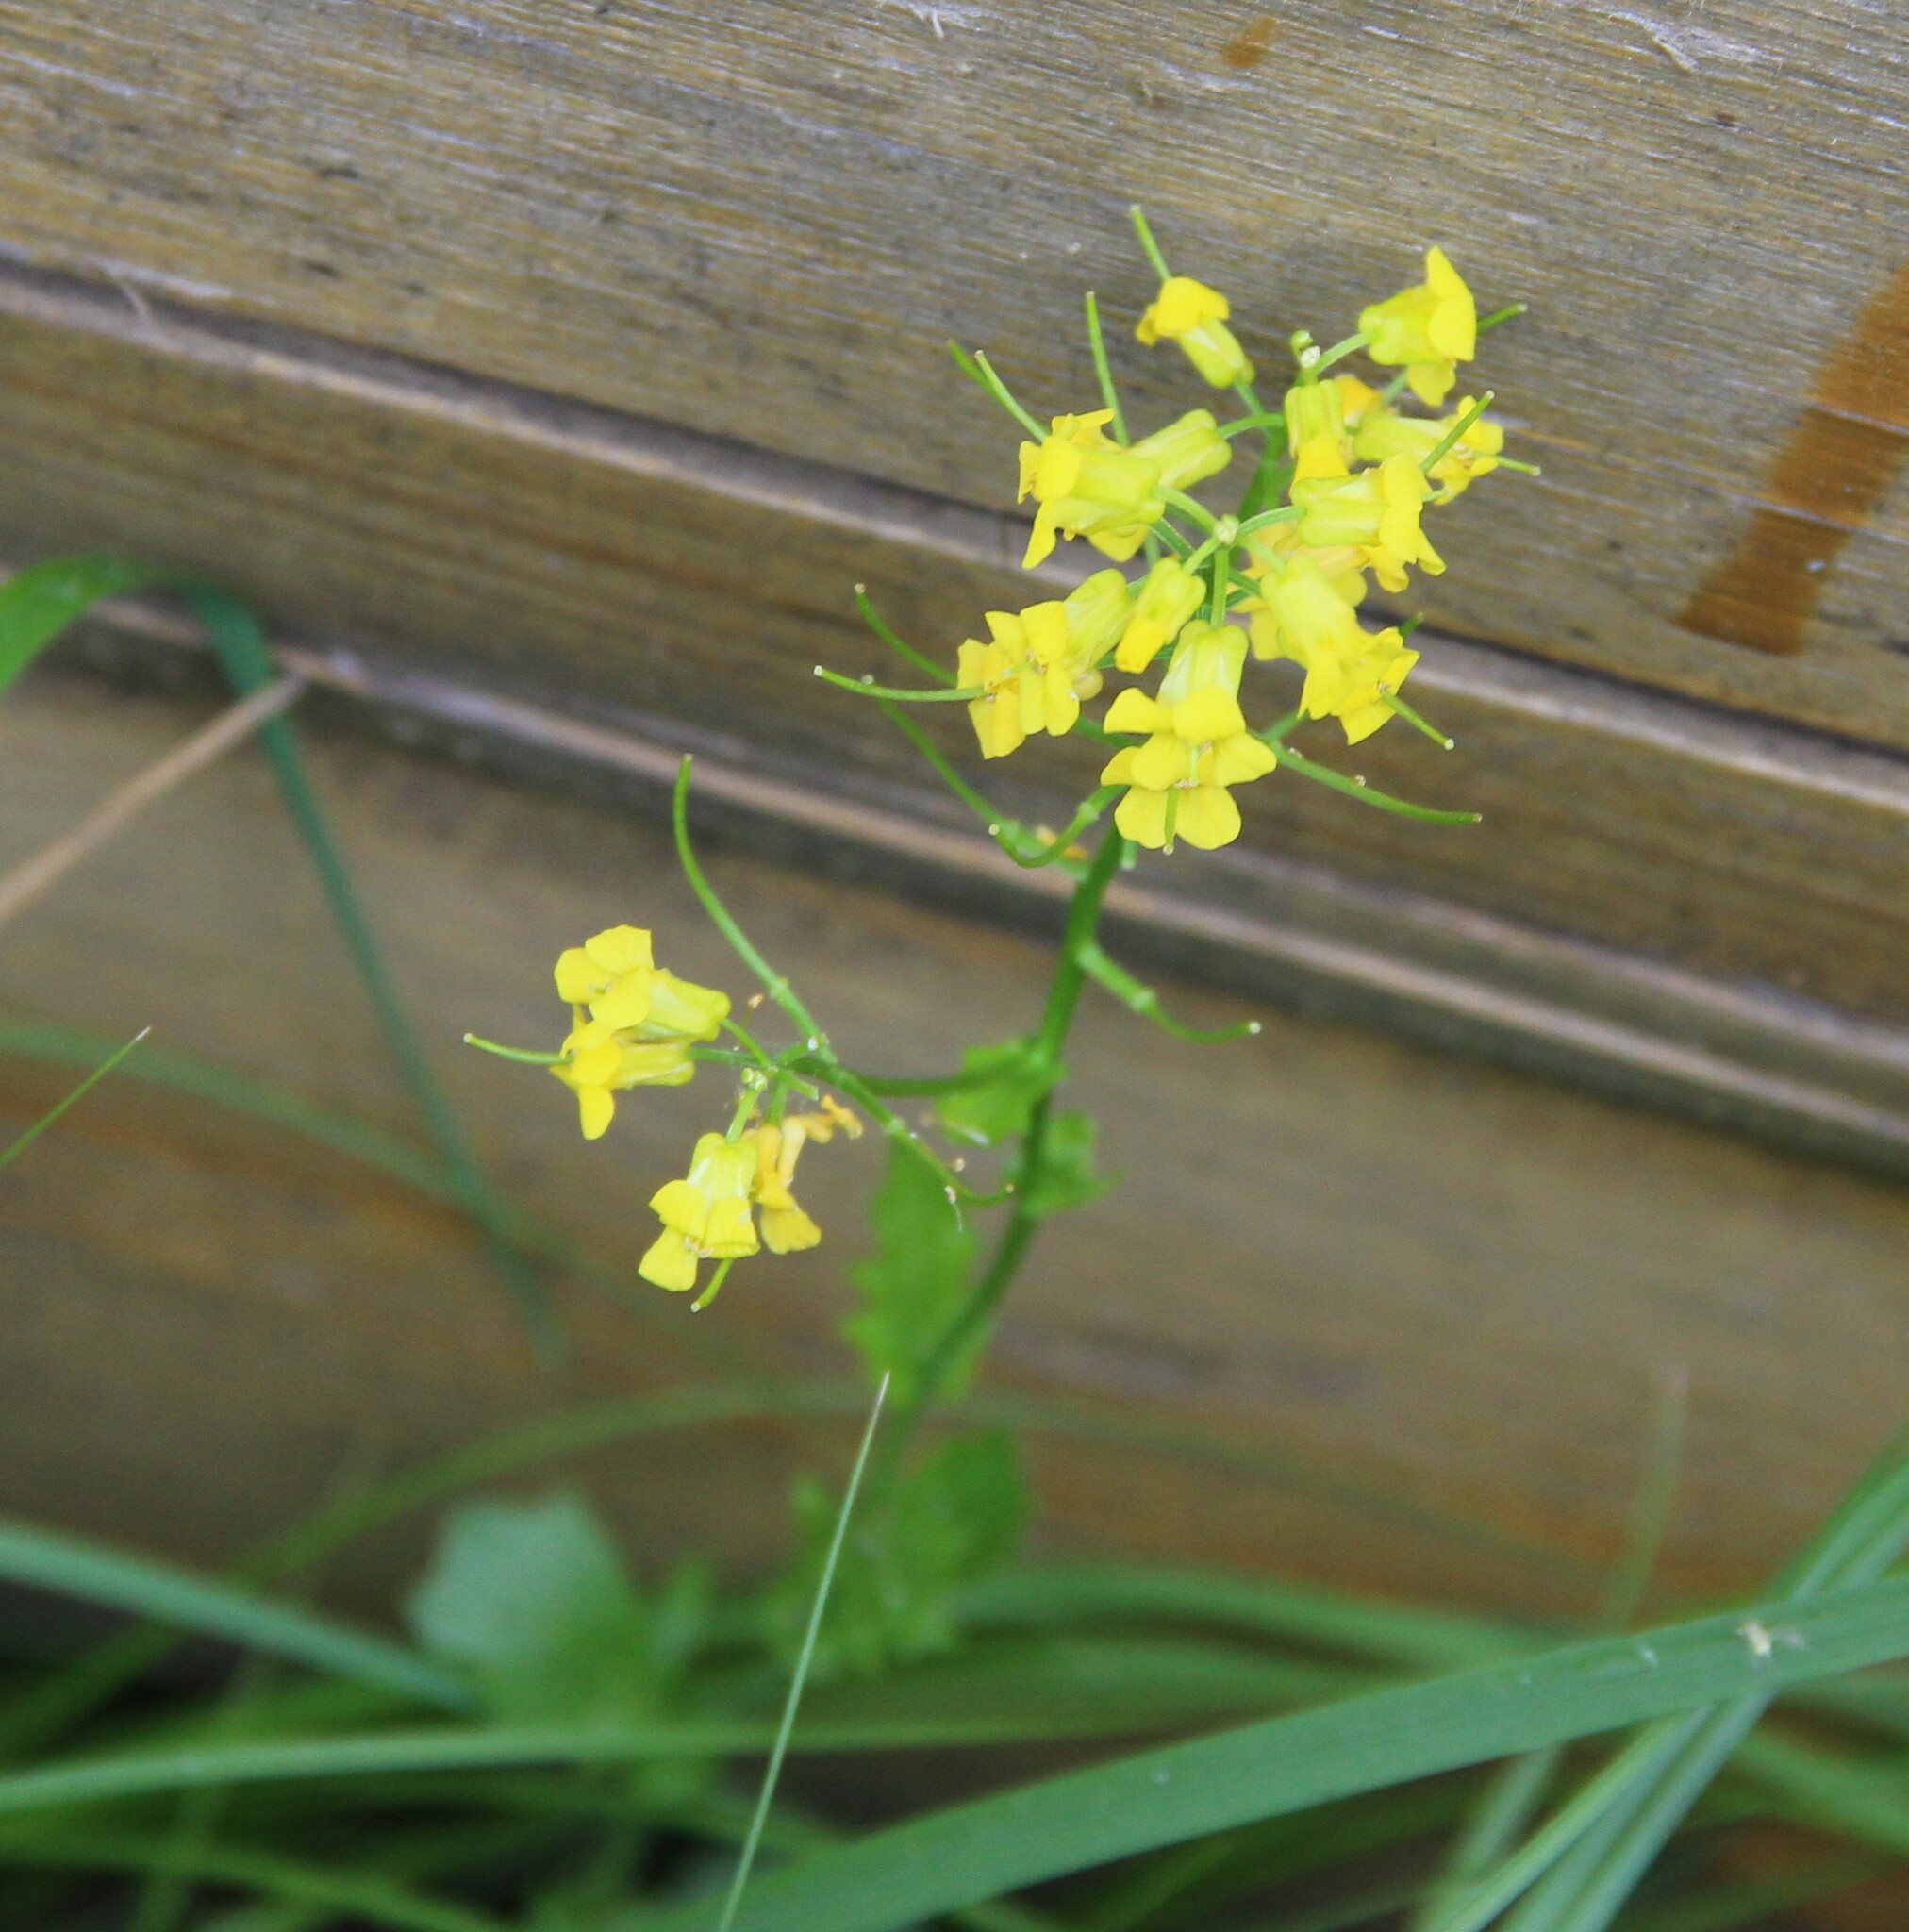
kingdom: Plantae
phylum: Tracheophyta
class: Magnoliopsida
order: Brassicales
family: Brassicaceae
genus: Barbarea
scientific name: Barbarea vulgaris
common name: Cressy-greens
